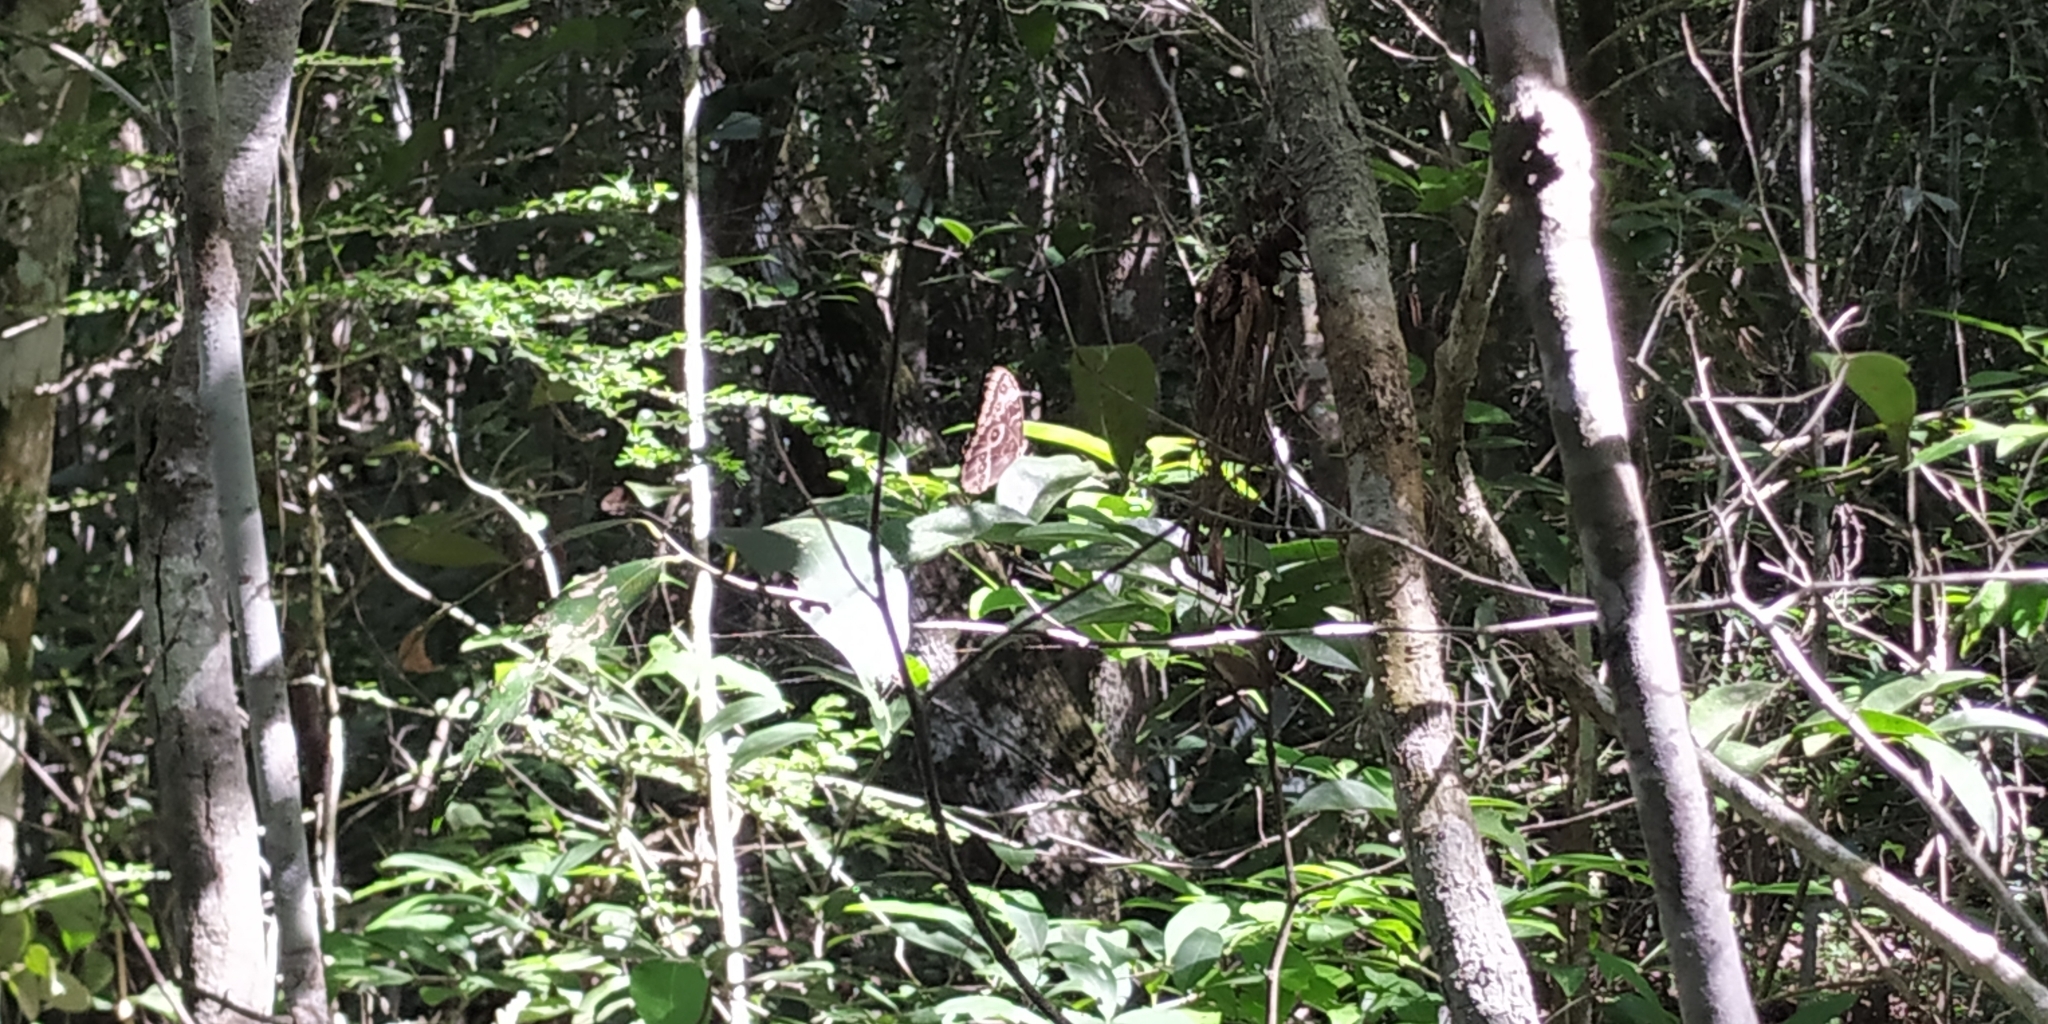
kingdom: Animalia
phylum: Arthropoda
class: Insecta
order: Lepidoptera
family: Nymphalidae
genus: Morpho
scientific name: Morpho helenor
